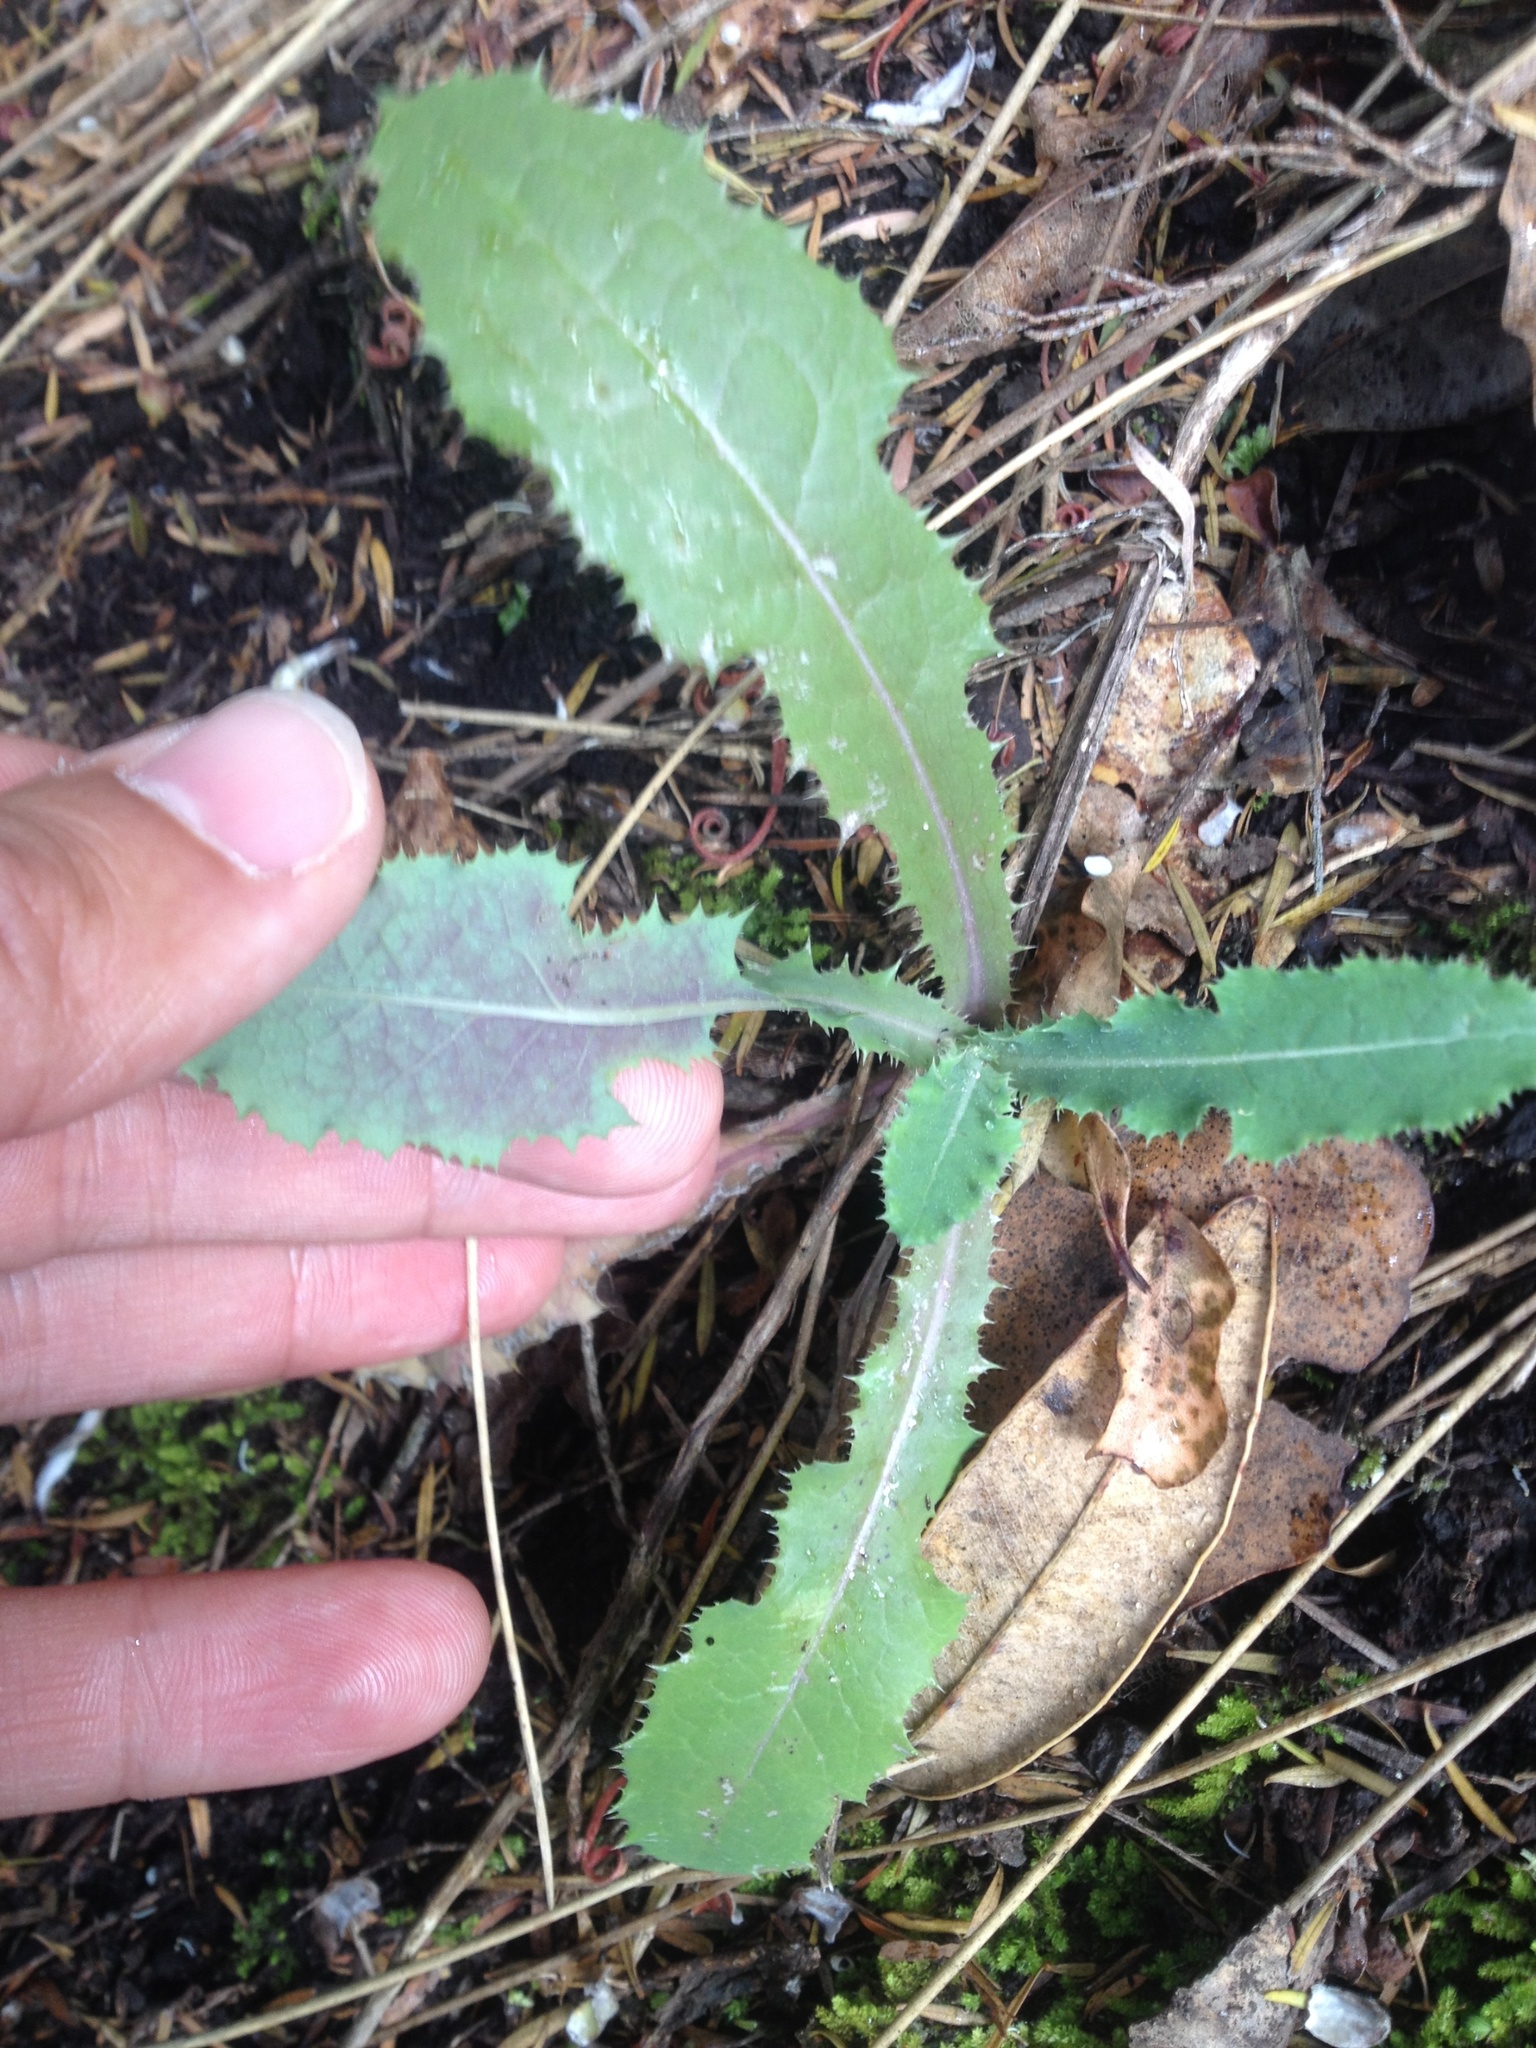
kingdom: Plantae
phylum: Tracheophyta
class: Magnoliopsida
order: Asterales
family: Asteraceae
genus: Sonchus
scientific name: Sonchus oleraceus
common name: Common sowthistle
